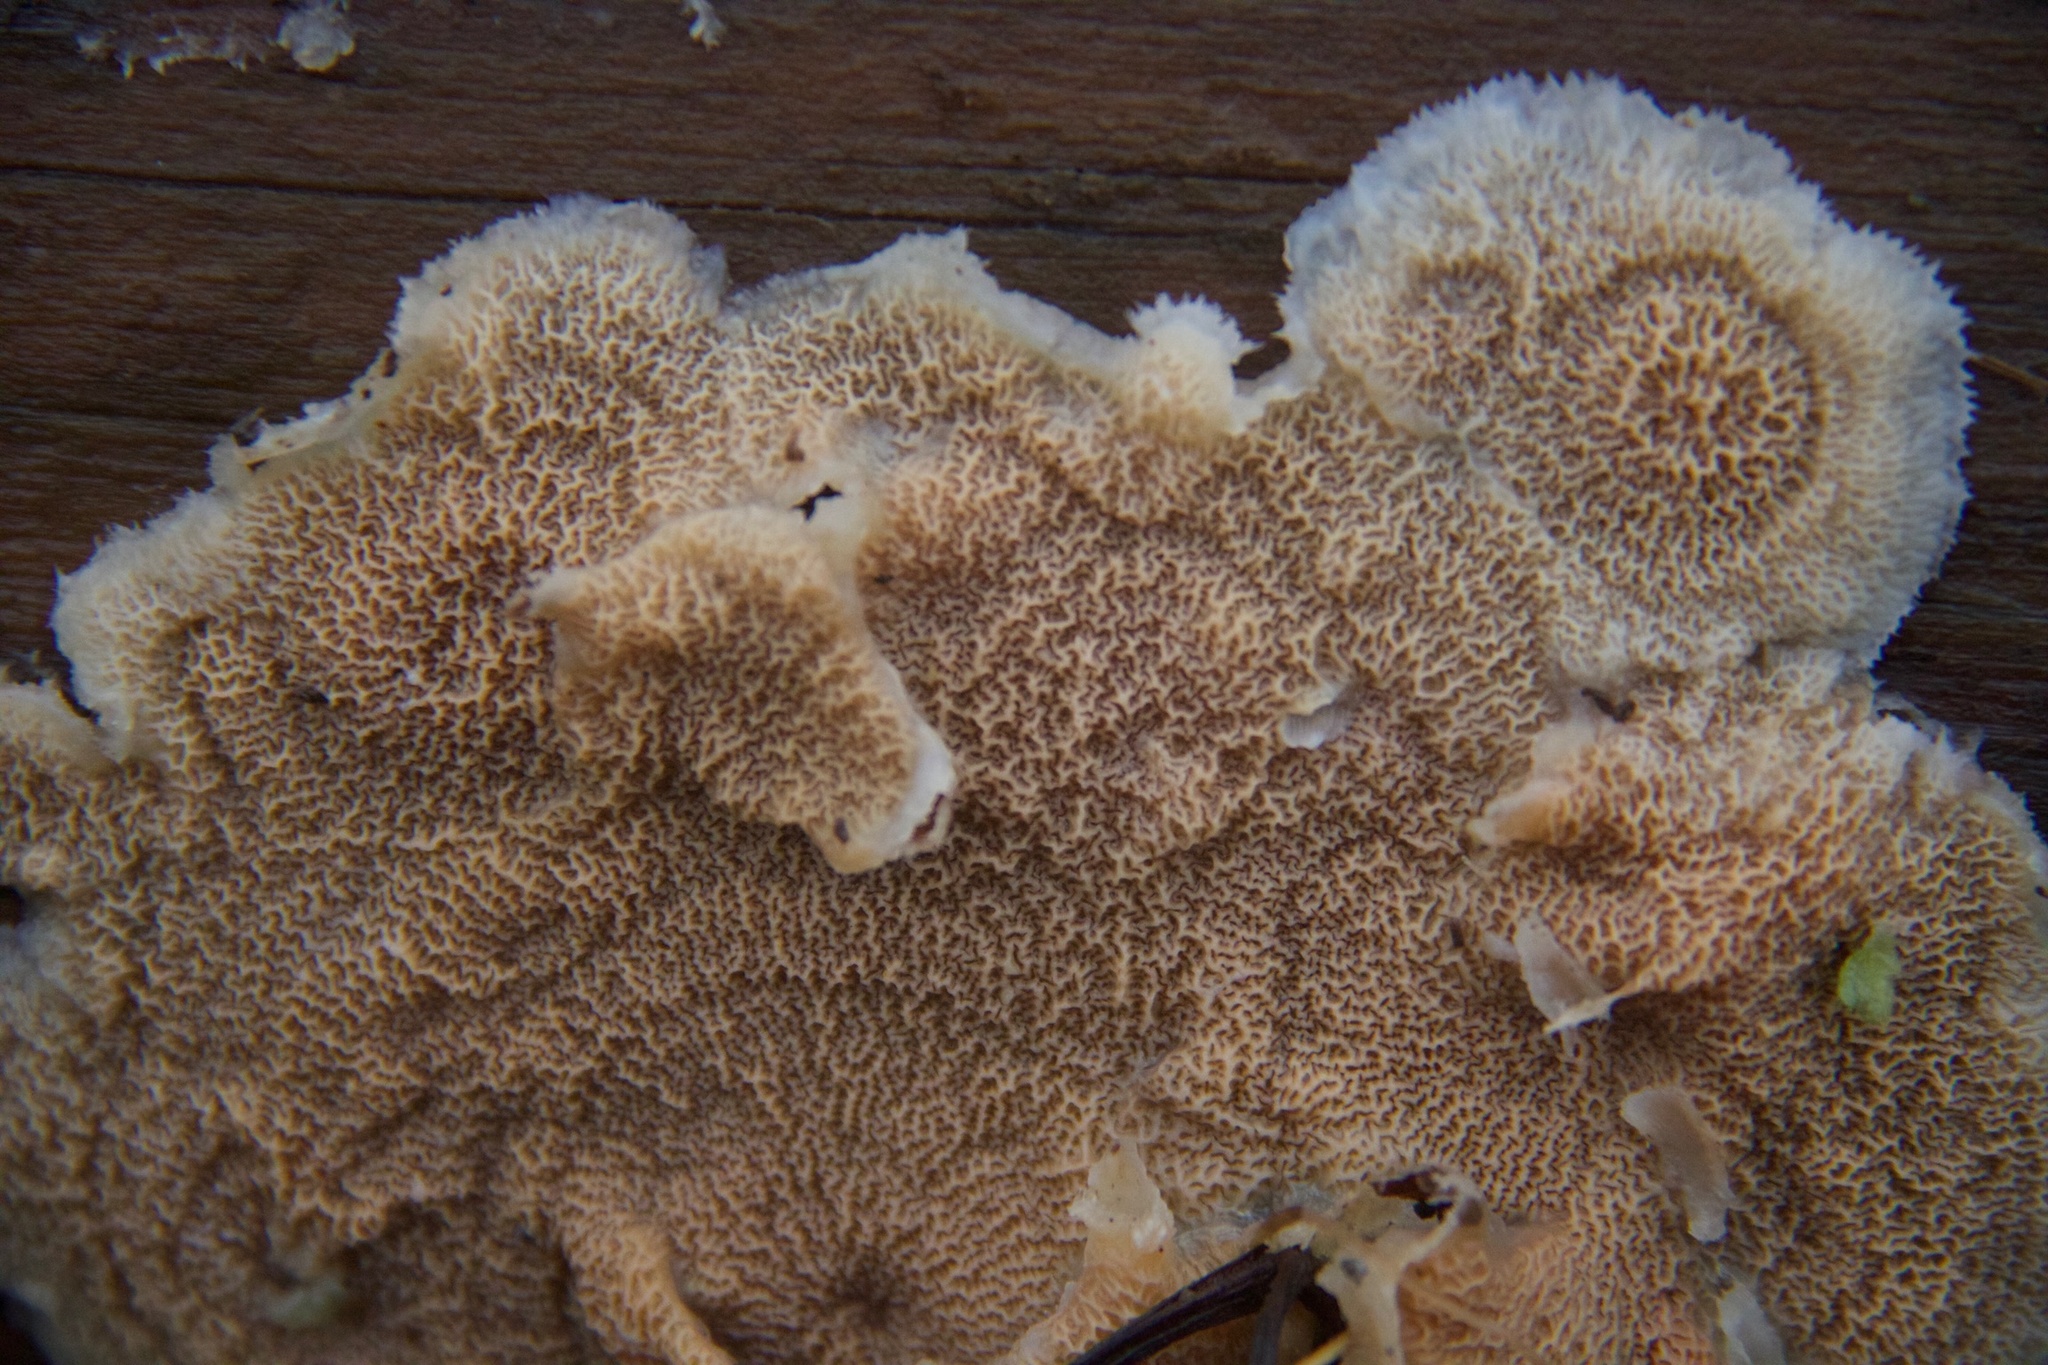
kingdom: Fungi
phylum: Basidiomycota
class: Agaricomycetes
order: Polyporales
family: Meruliaceae
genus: Phlebia
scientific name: Phlebia tremellosa
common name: Jelly rot
